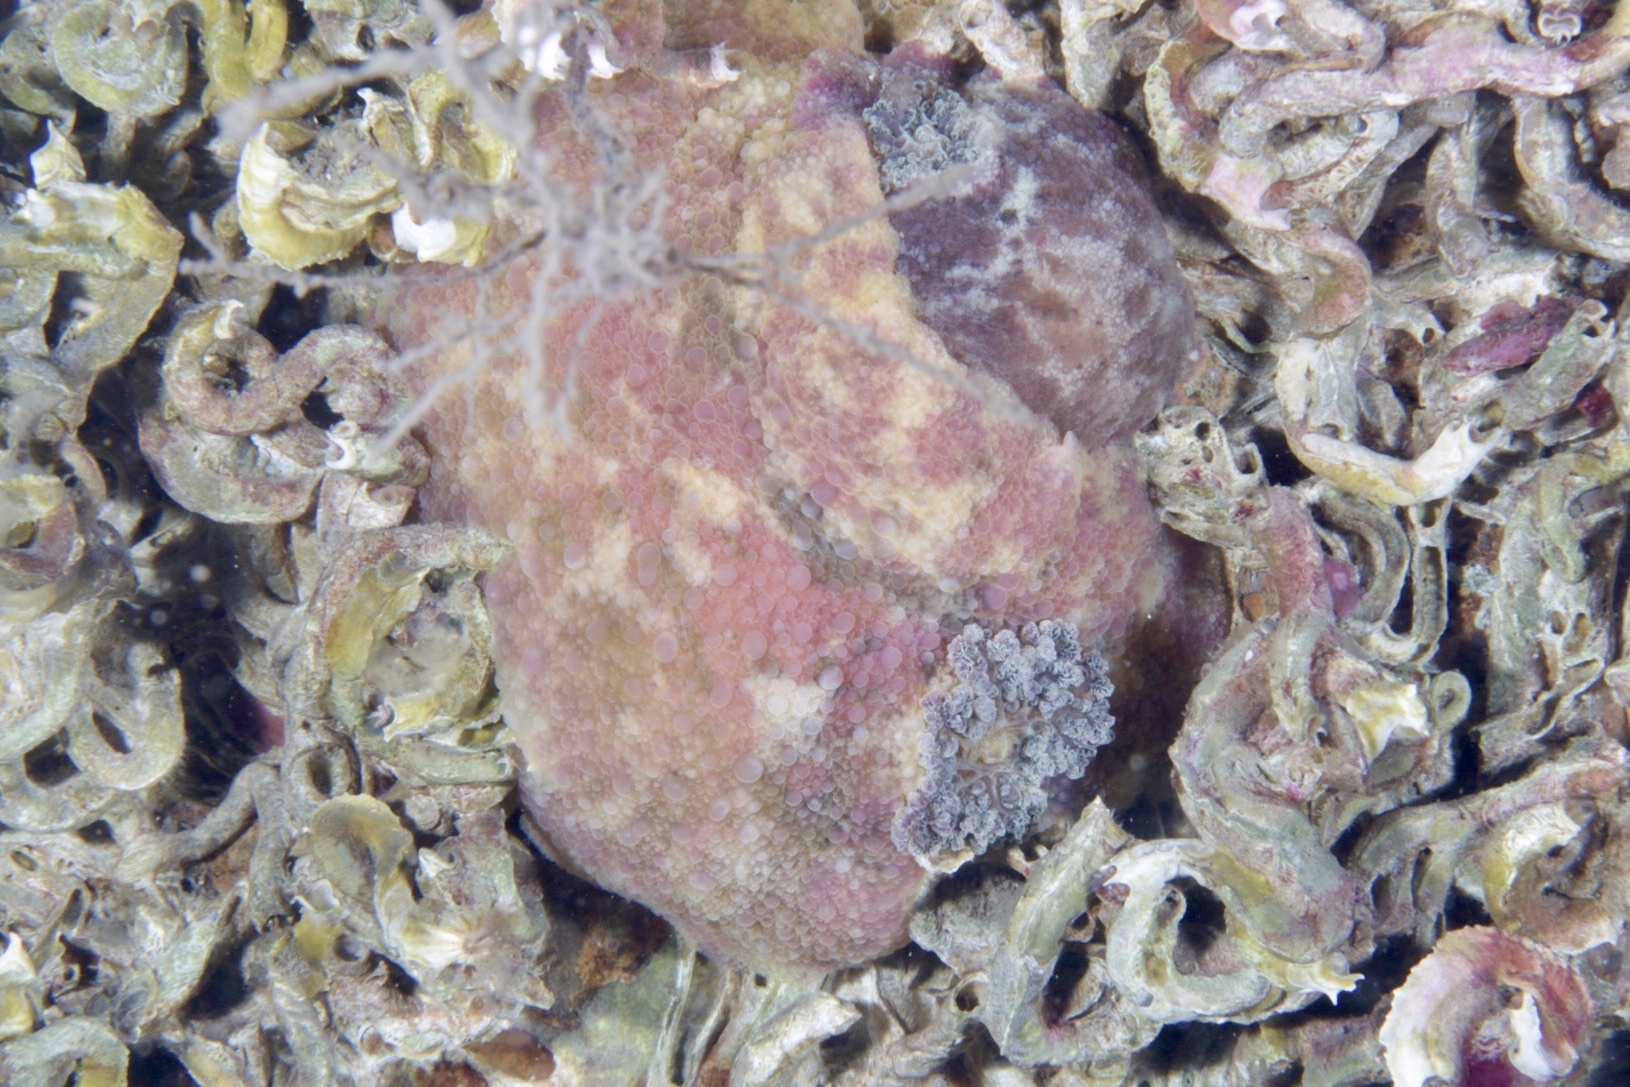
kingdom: Animalia
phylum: Mollusca
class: Gastropoda
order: Nudibranchia
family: Dorididae
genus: Doris
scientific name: Doris pseudoargus
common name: Sea lemon
